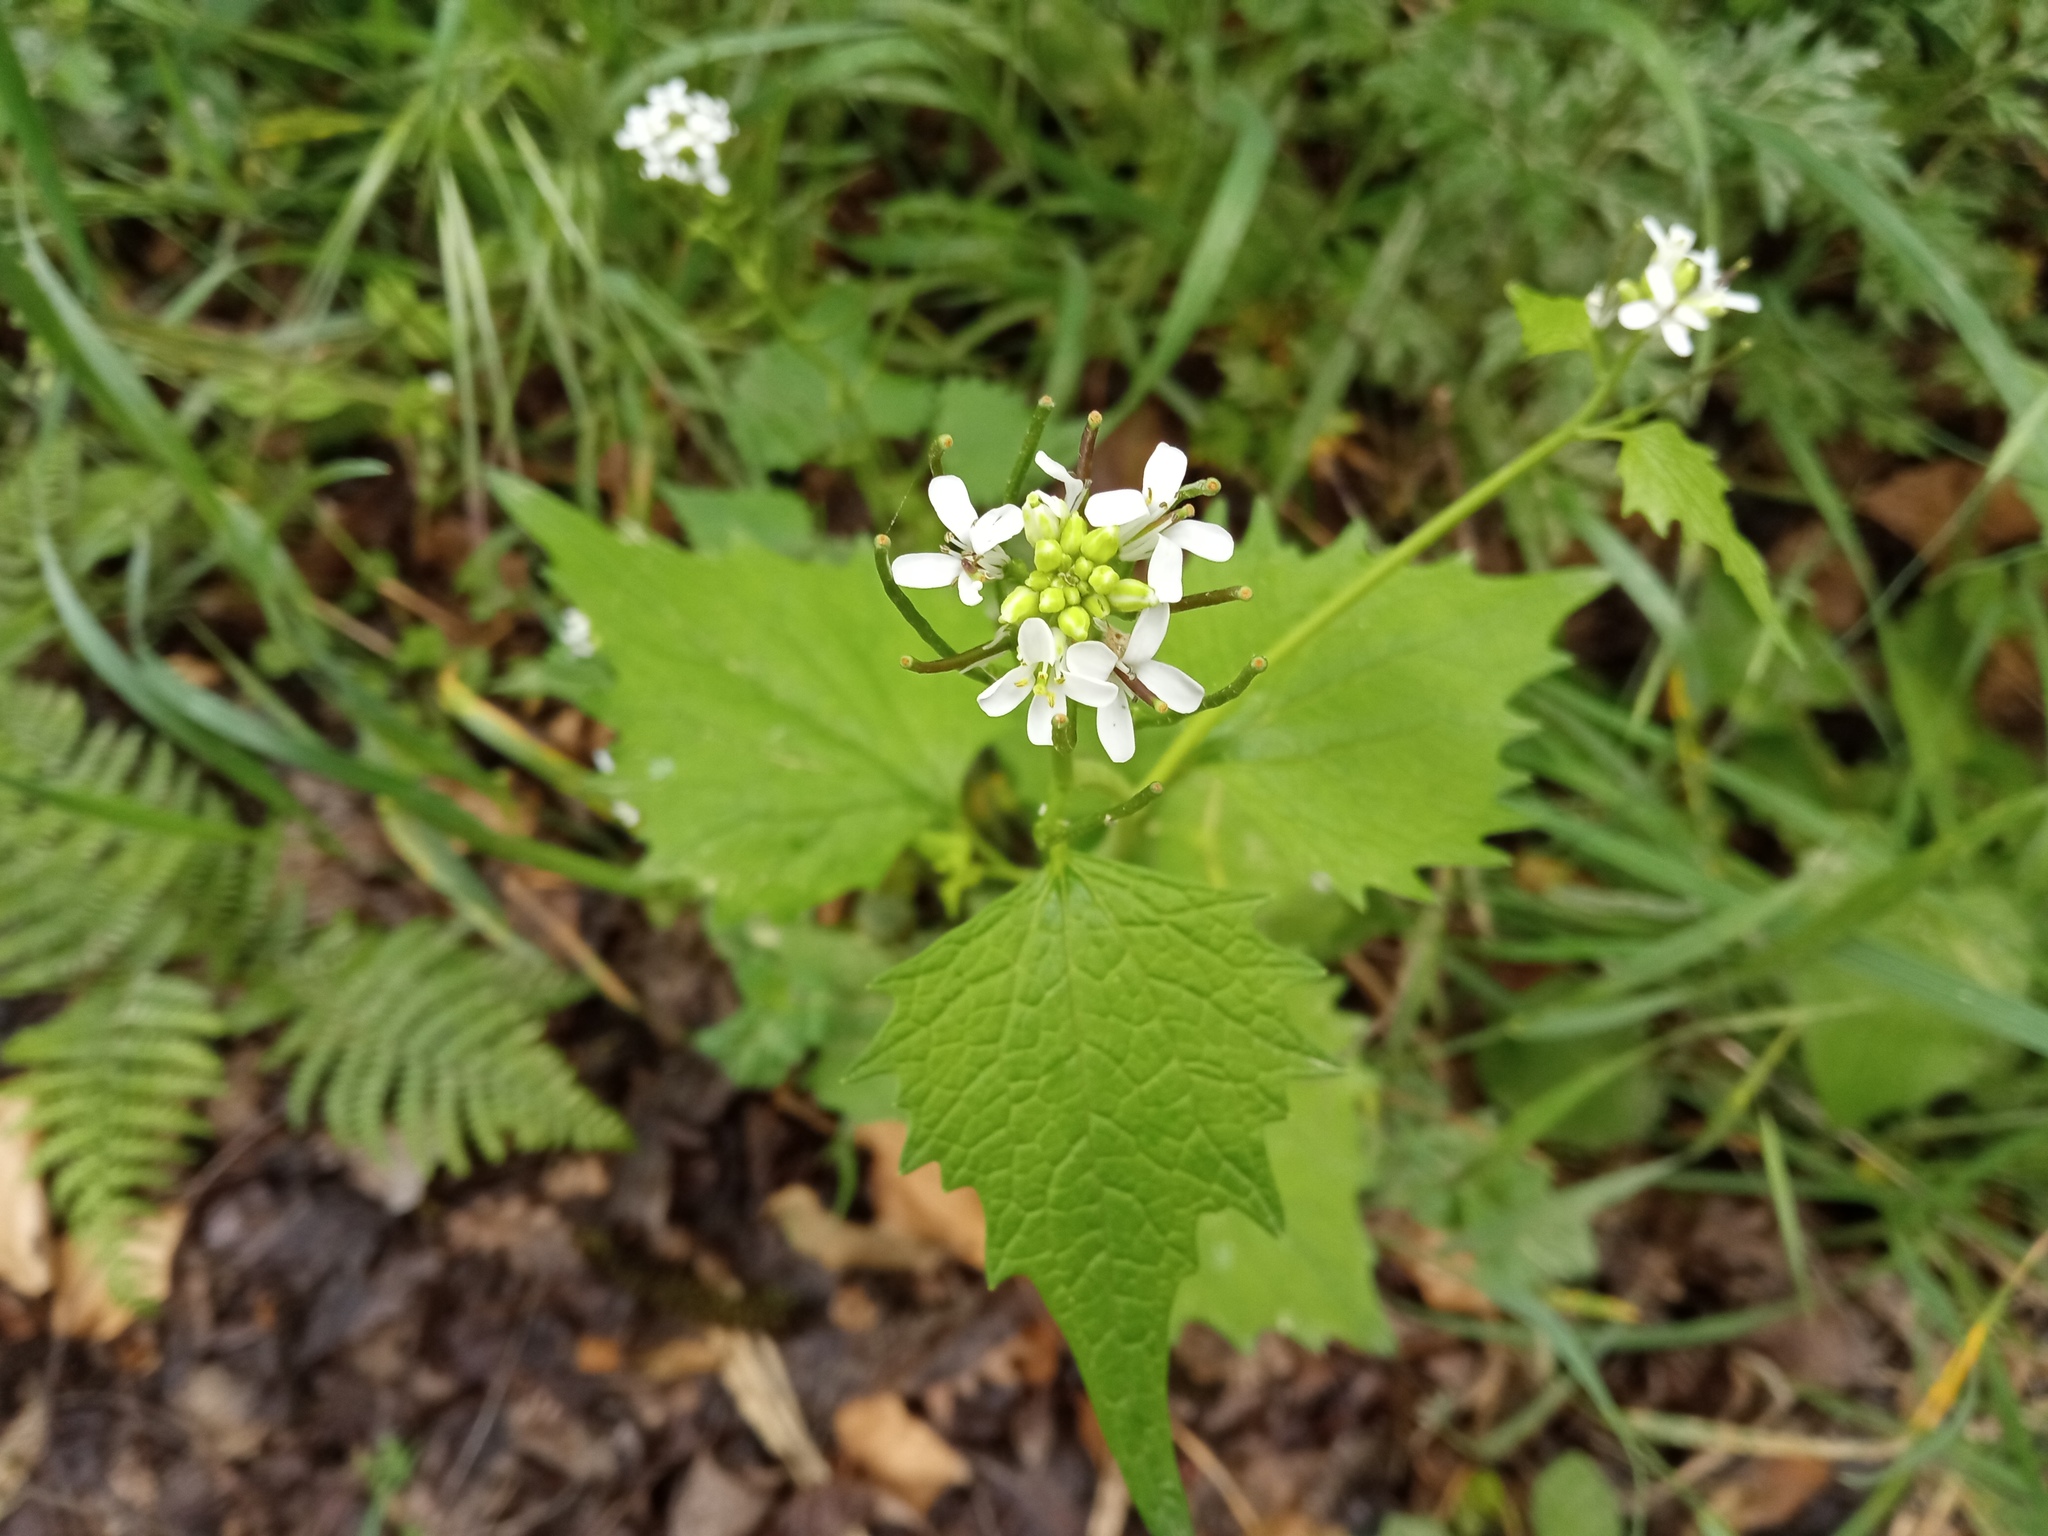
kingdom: Plantae
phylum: Tracheophyta
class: Magnoliopsida
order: Brassicales
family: Brassicaceae
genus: Alliaria
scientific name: Alliaria petiolata
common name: Garlic mustard
